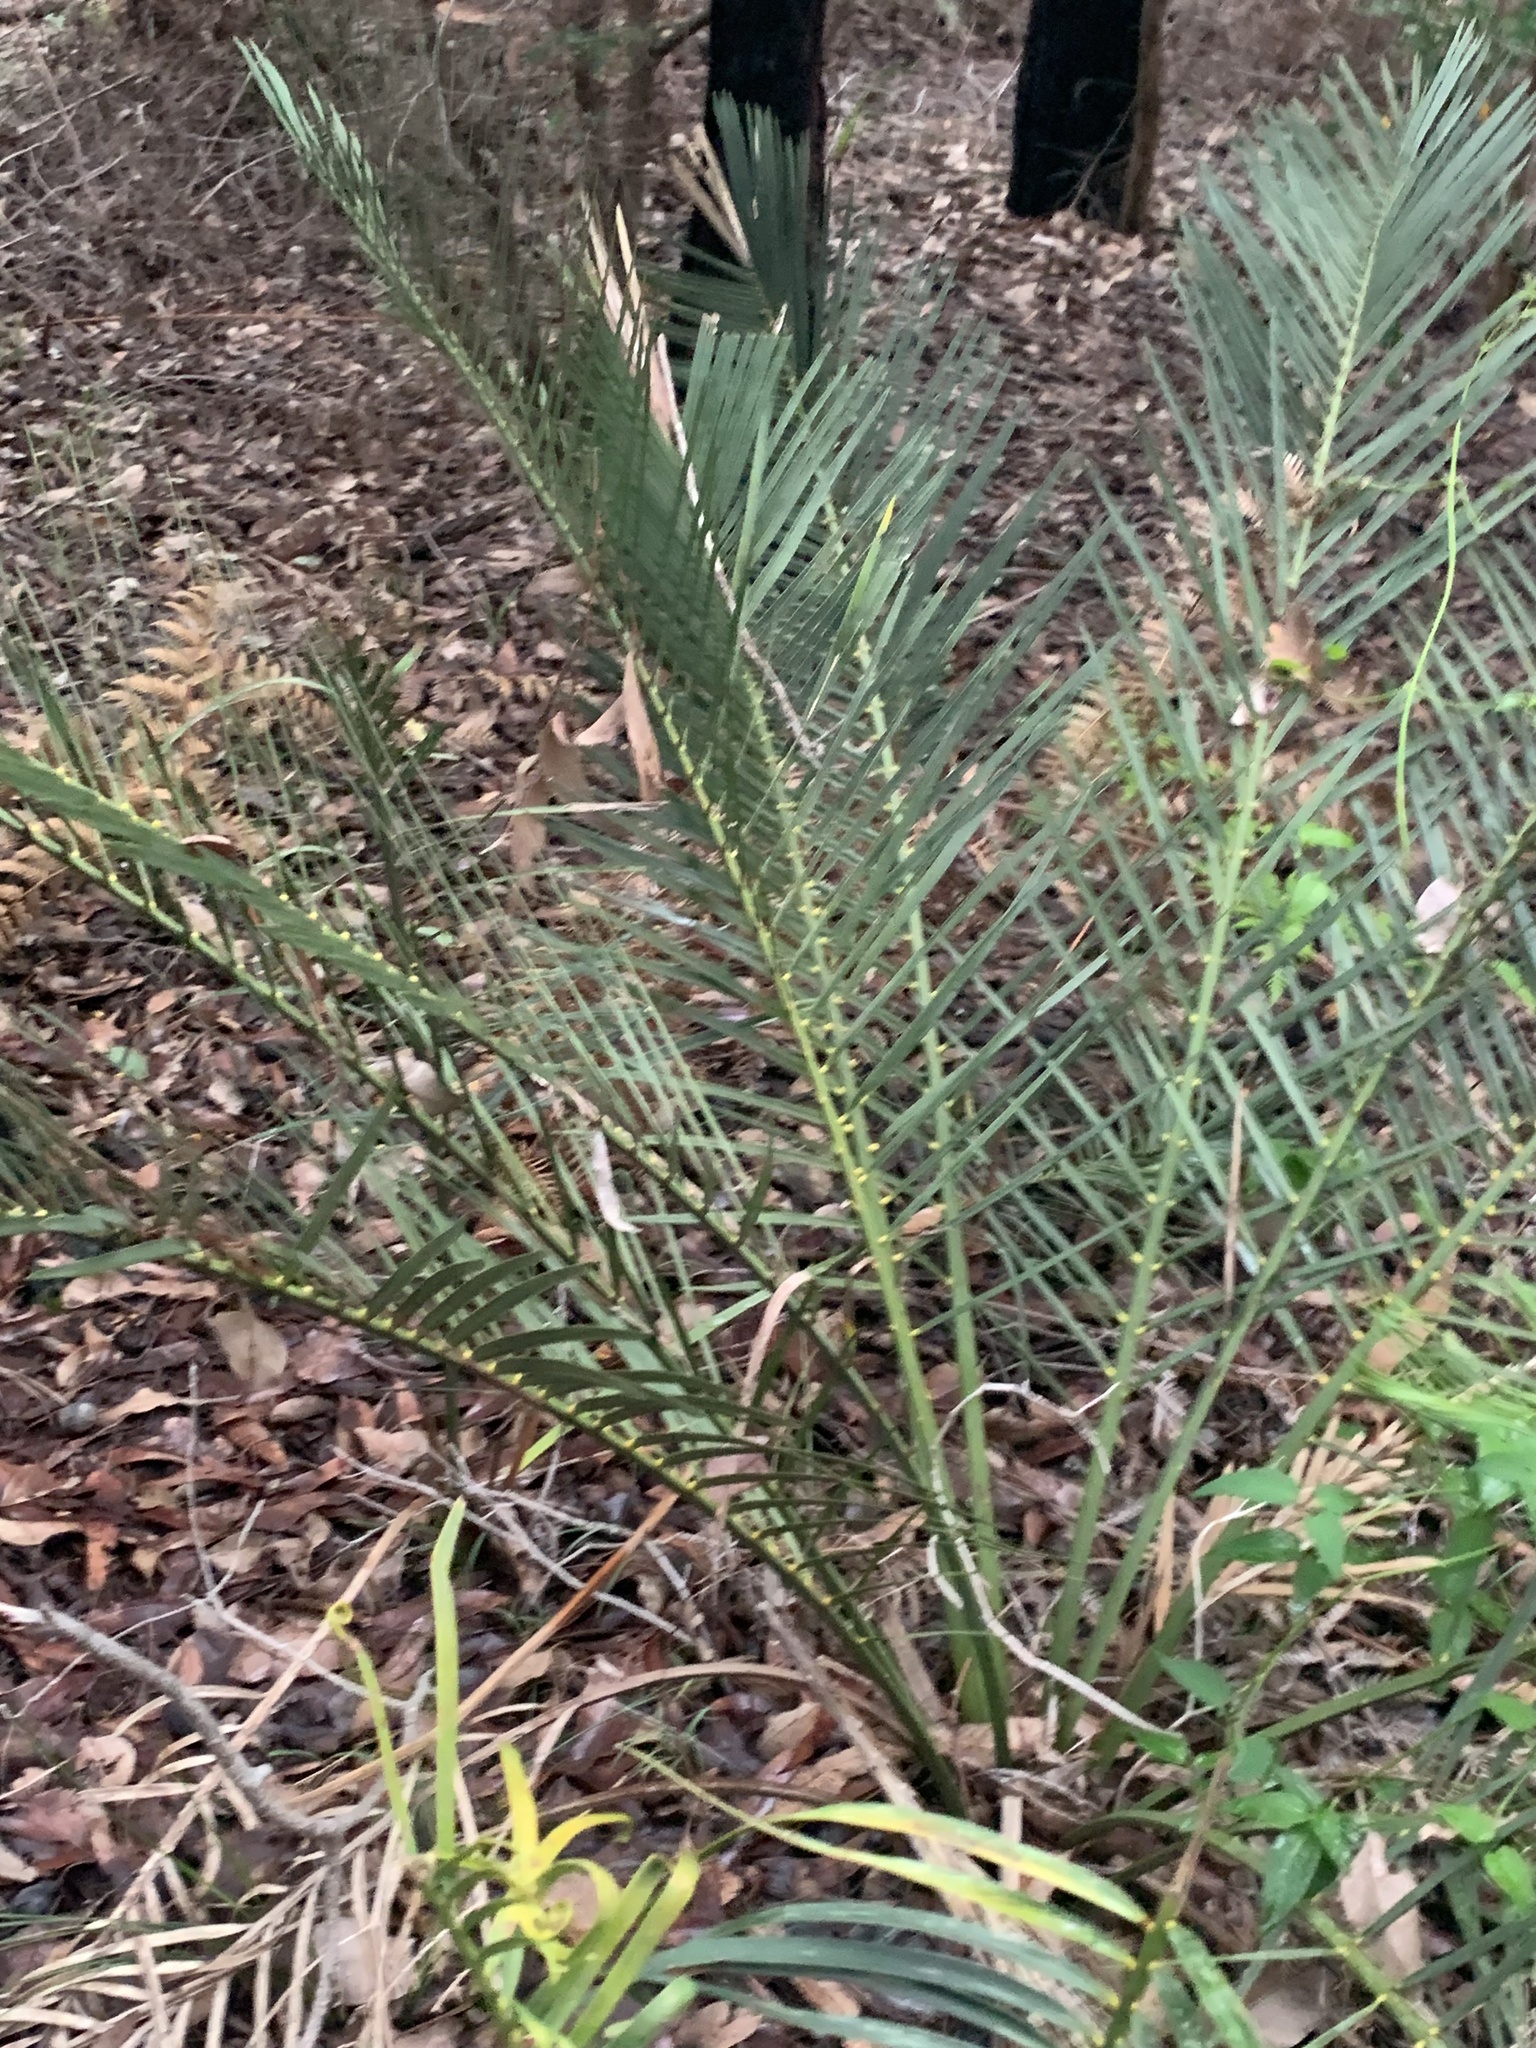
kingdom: Plantae
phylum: Tracheophyta
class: Cycadopsida
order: Cycadales
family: Zamiaceae
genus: Macrozamia
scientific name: Macrozamia riedlei
